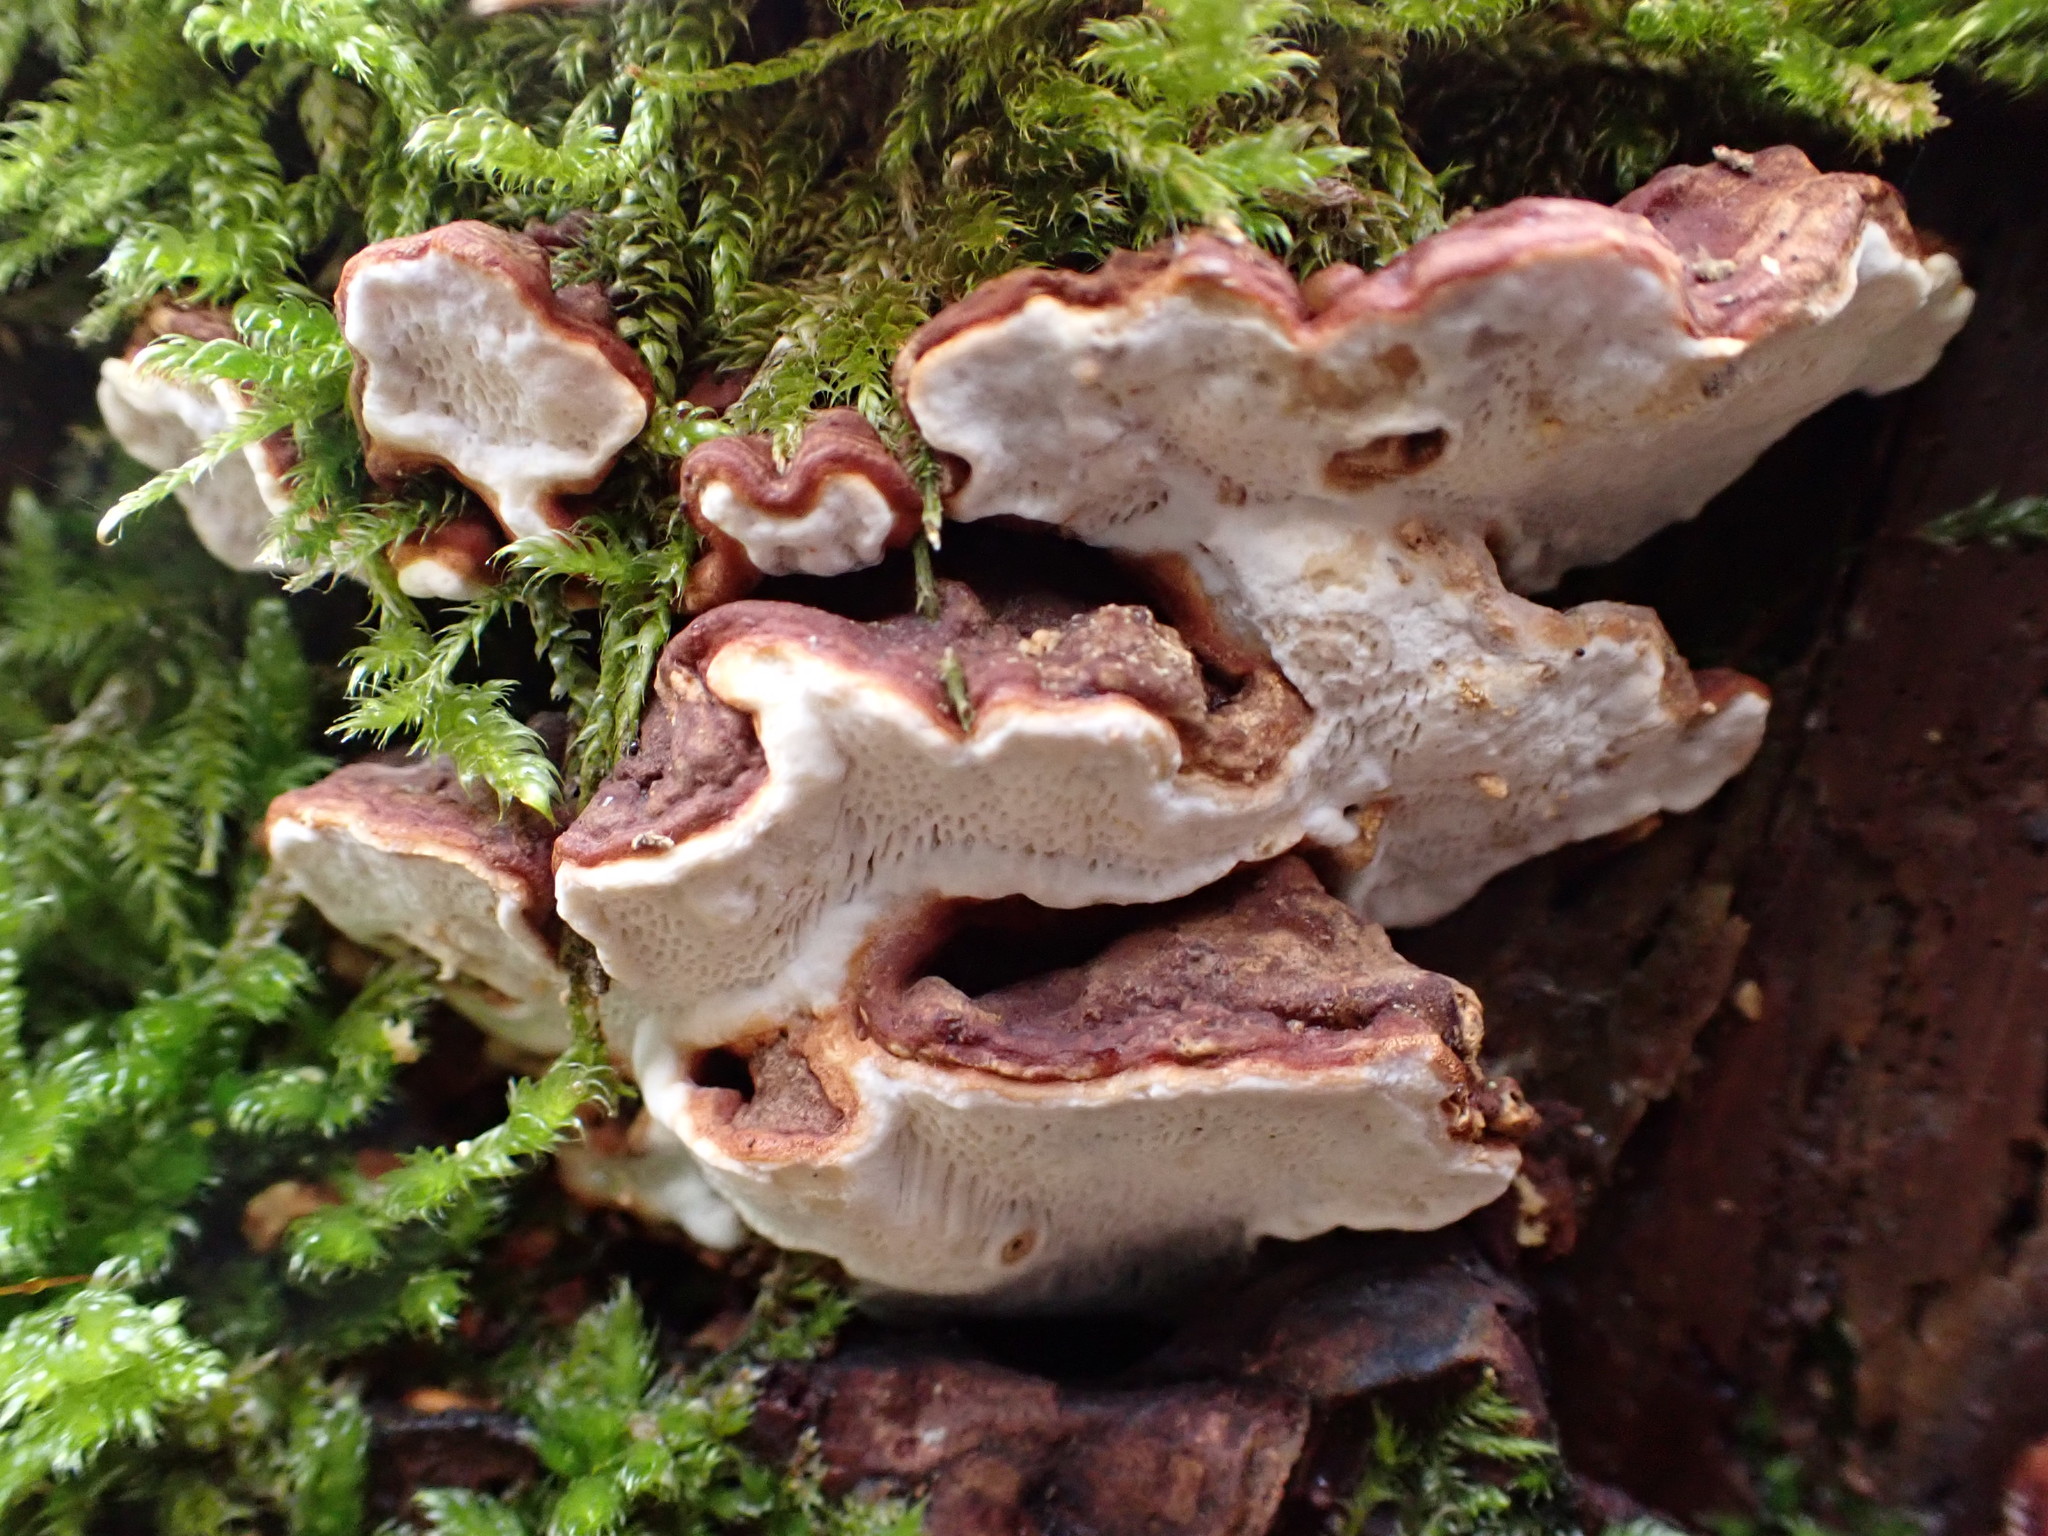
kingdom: Fungi
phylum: Basidiomycota
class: Agaricomycetes
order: Russulales
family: Bondarzewiaceae
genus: Heterobasidion
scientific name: Heterobasidion annosum
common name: Root rot
